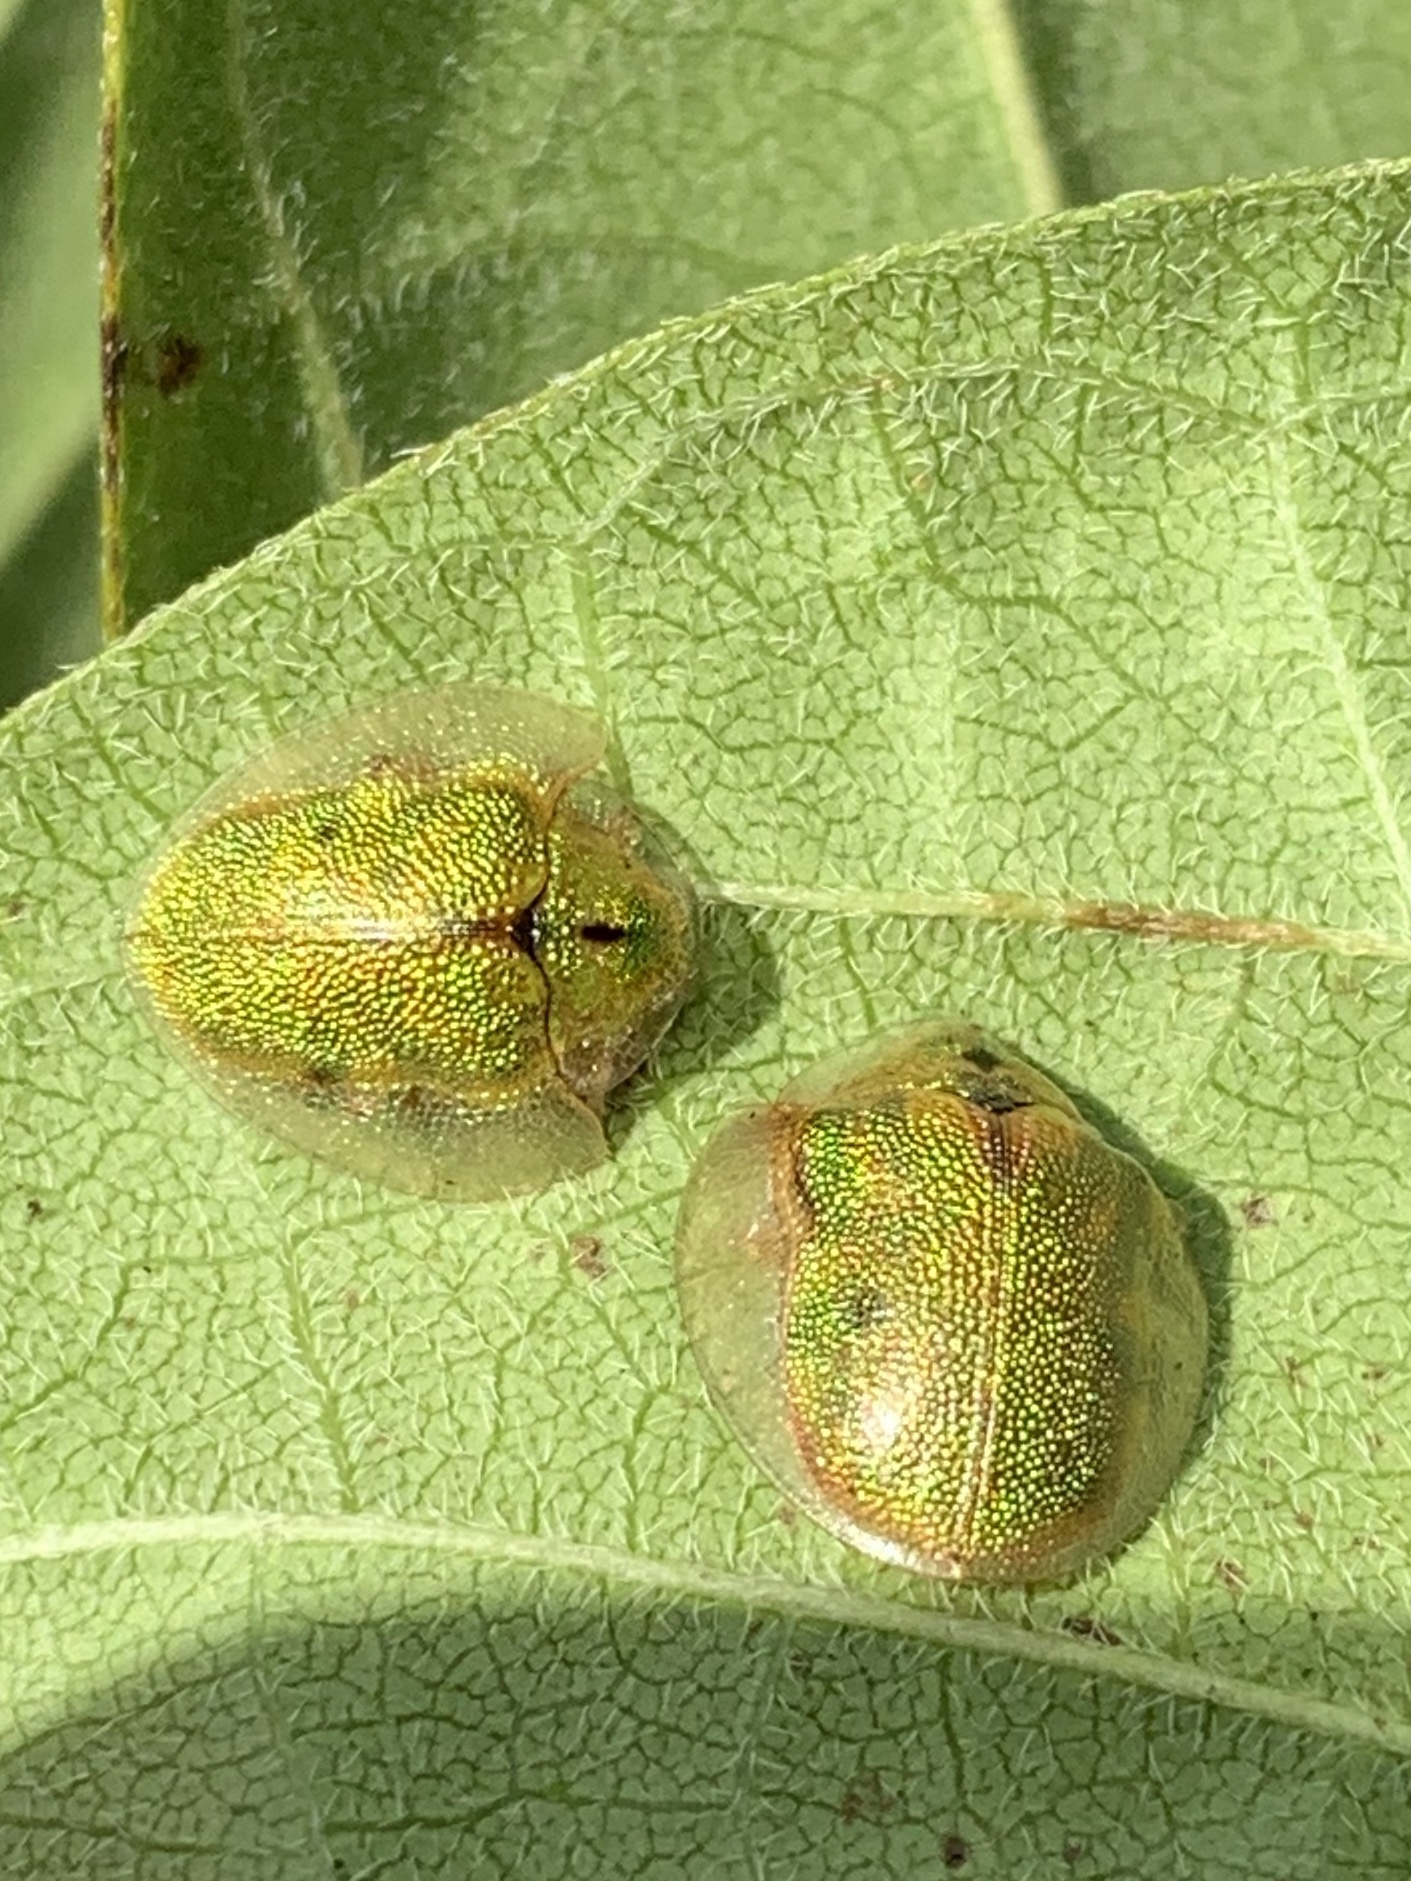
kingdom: Animalia
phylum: Arthropoda
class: Insecta
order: Coleoptera
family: Chrysomelidae
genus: Eurypepla
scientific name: Eurypepla calochroma
